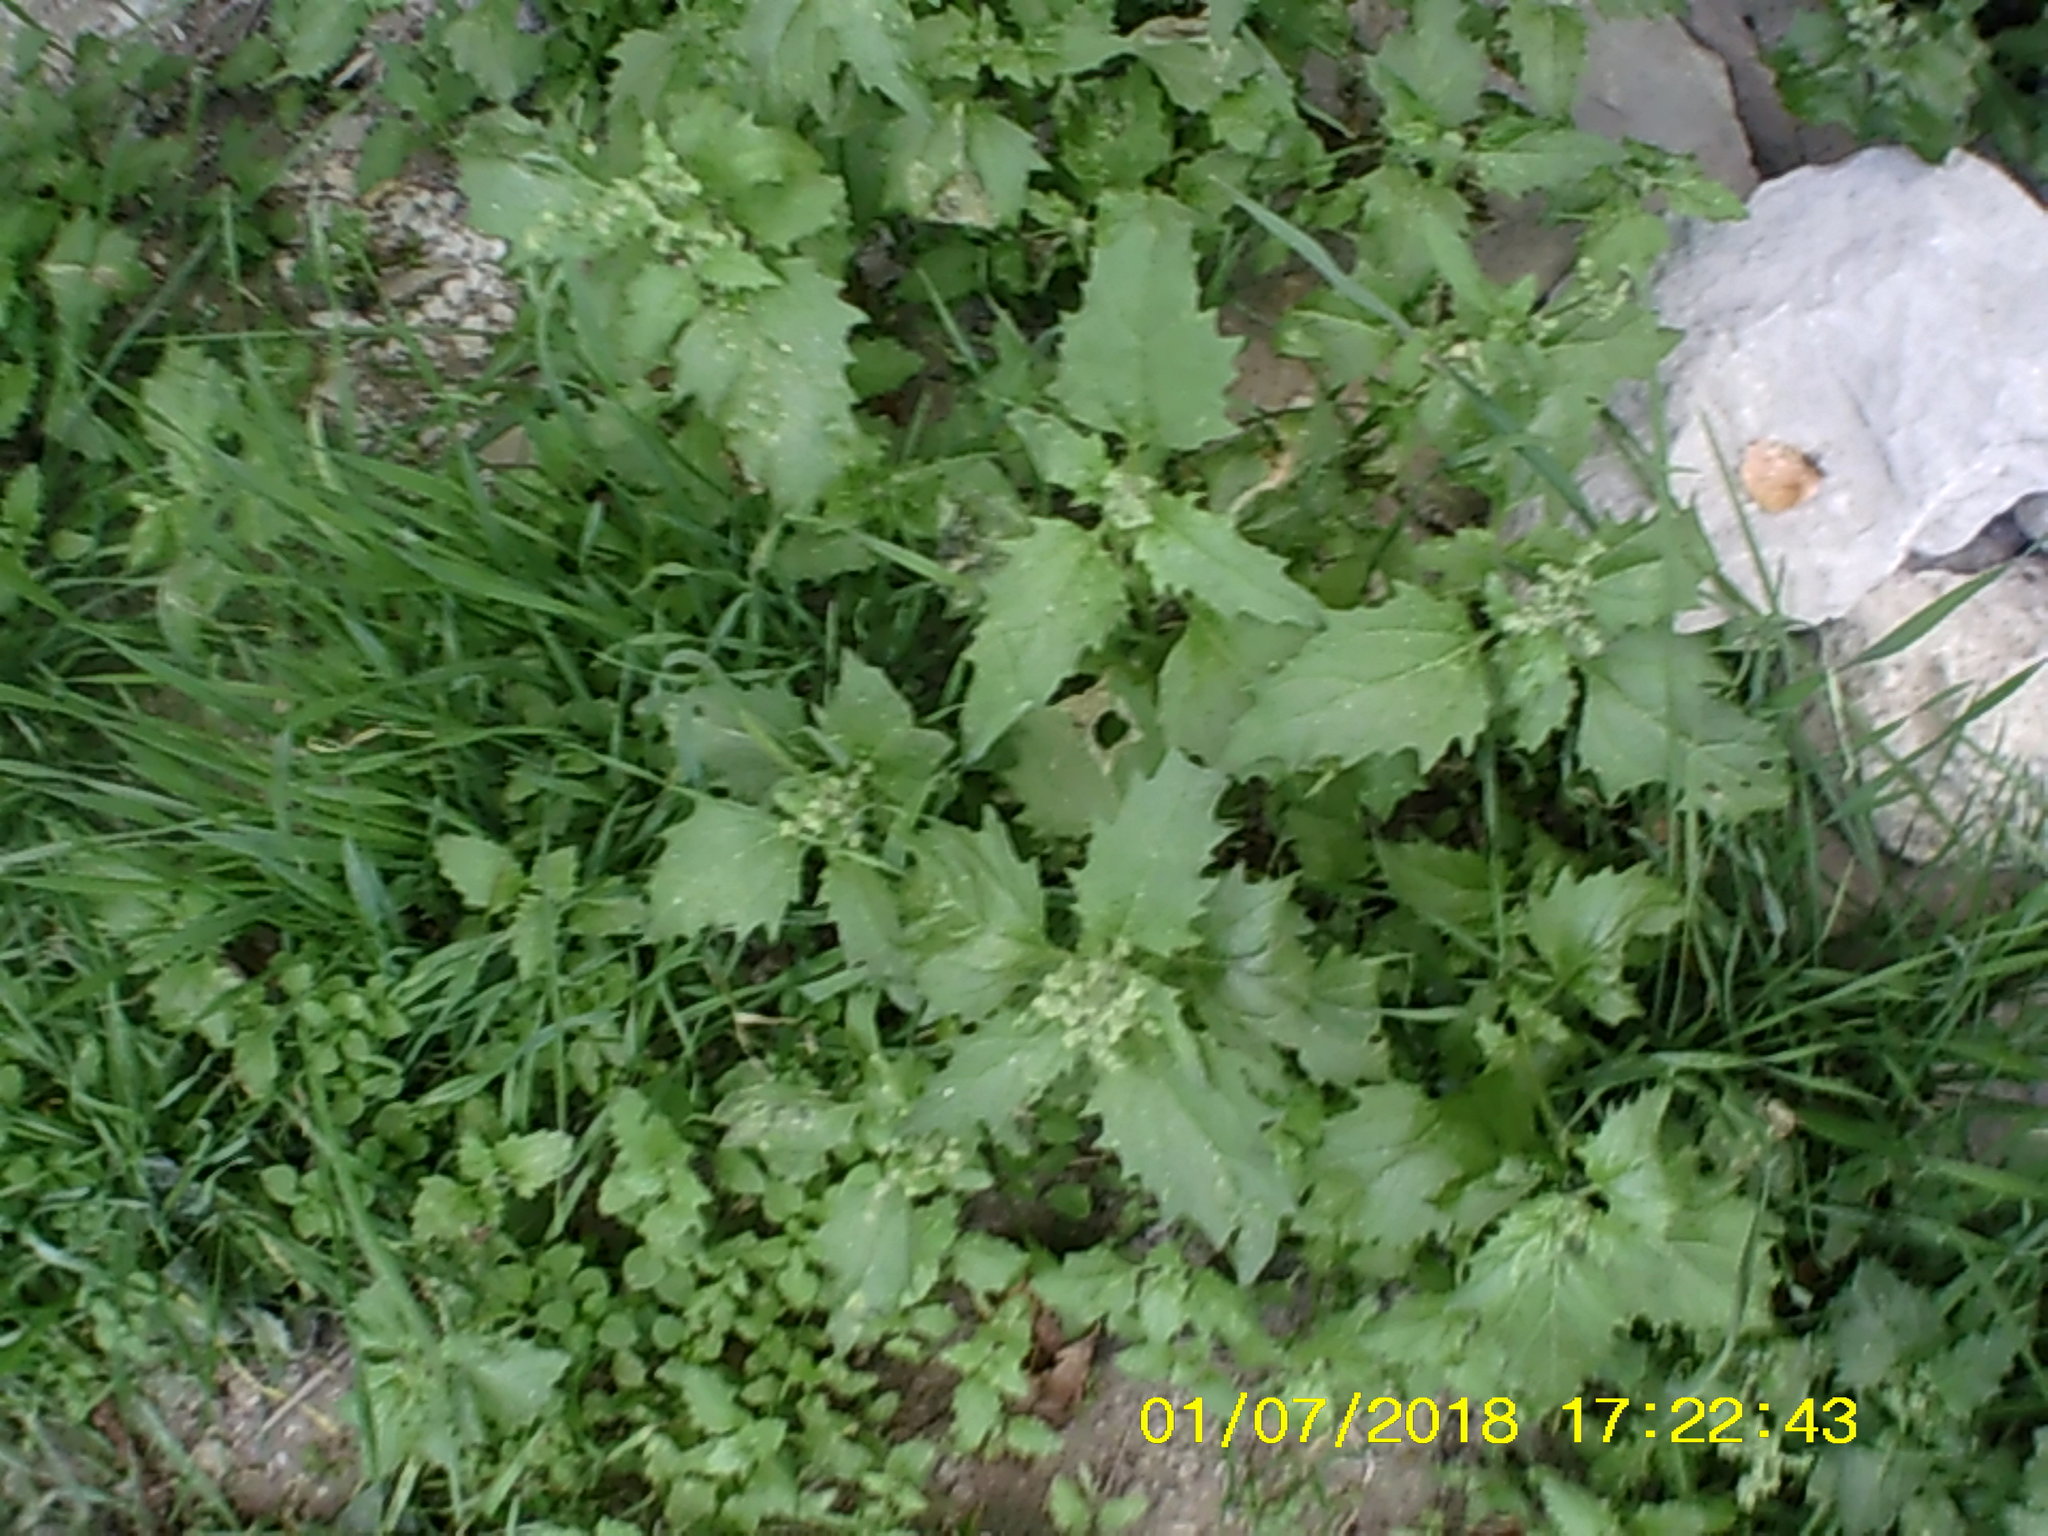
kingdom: Plantae
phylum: Tracheophyta
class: Magnoliopsida
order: Caryophyllales
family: Amaranthaceae
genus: Chenopodiastrum
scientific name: Chenopodiastrum murale
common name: Sowbane
